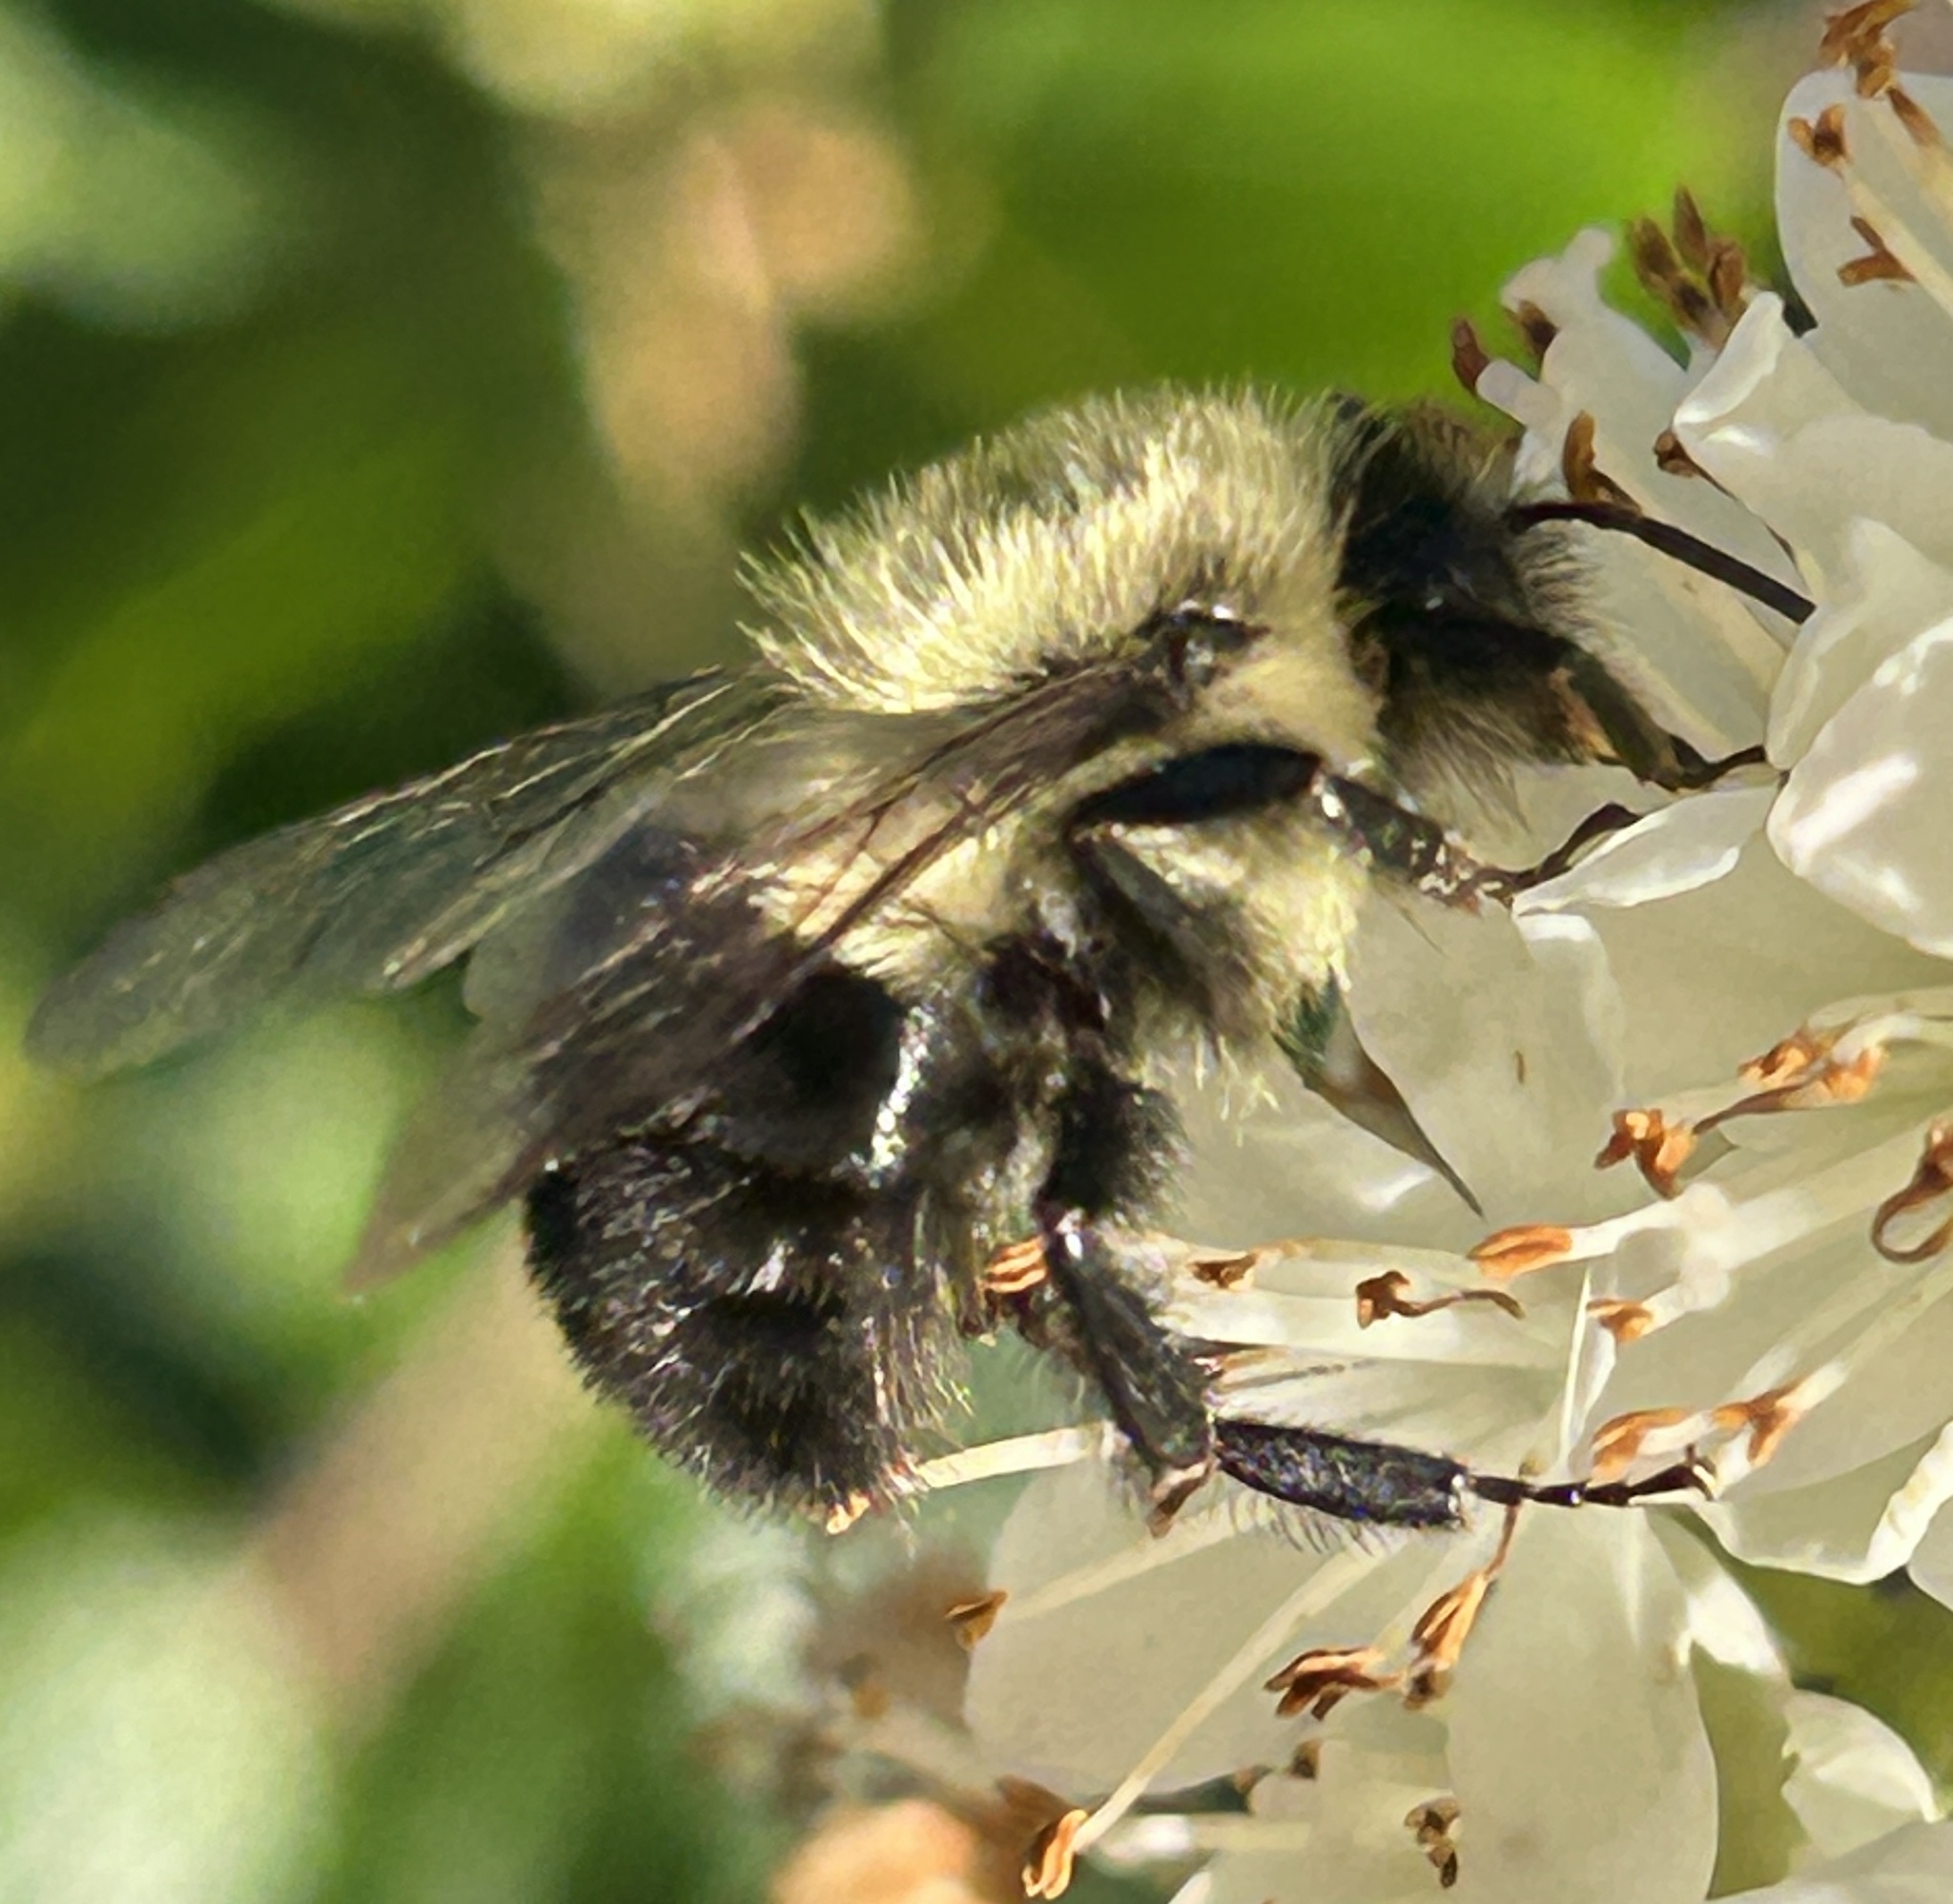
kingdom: Animalia
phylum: Arthropoda
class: Insecta
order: Hymenoptera
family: Apidae
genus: Bombus
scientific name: Bombus impatiens
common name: Common eastern bumble bee
